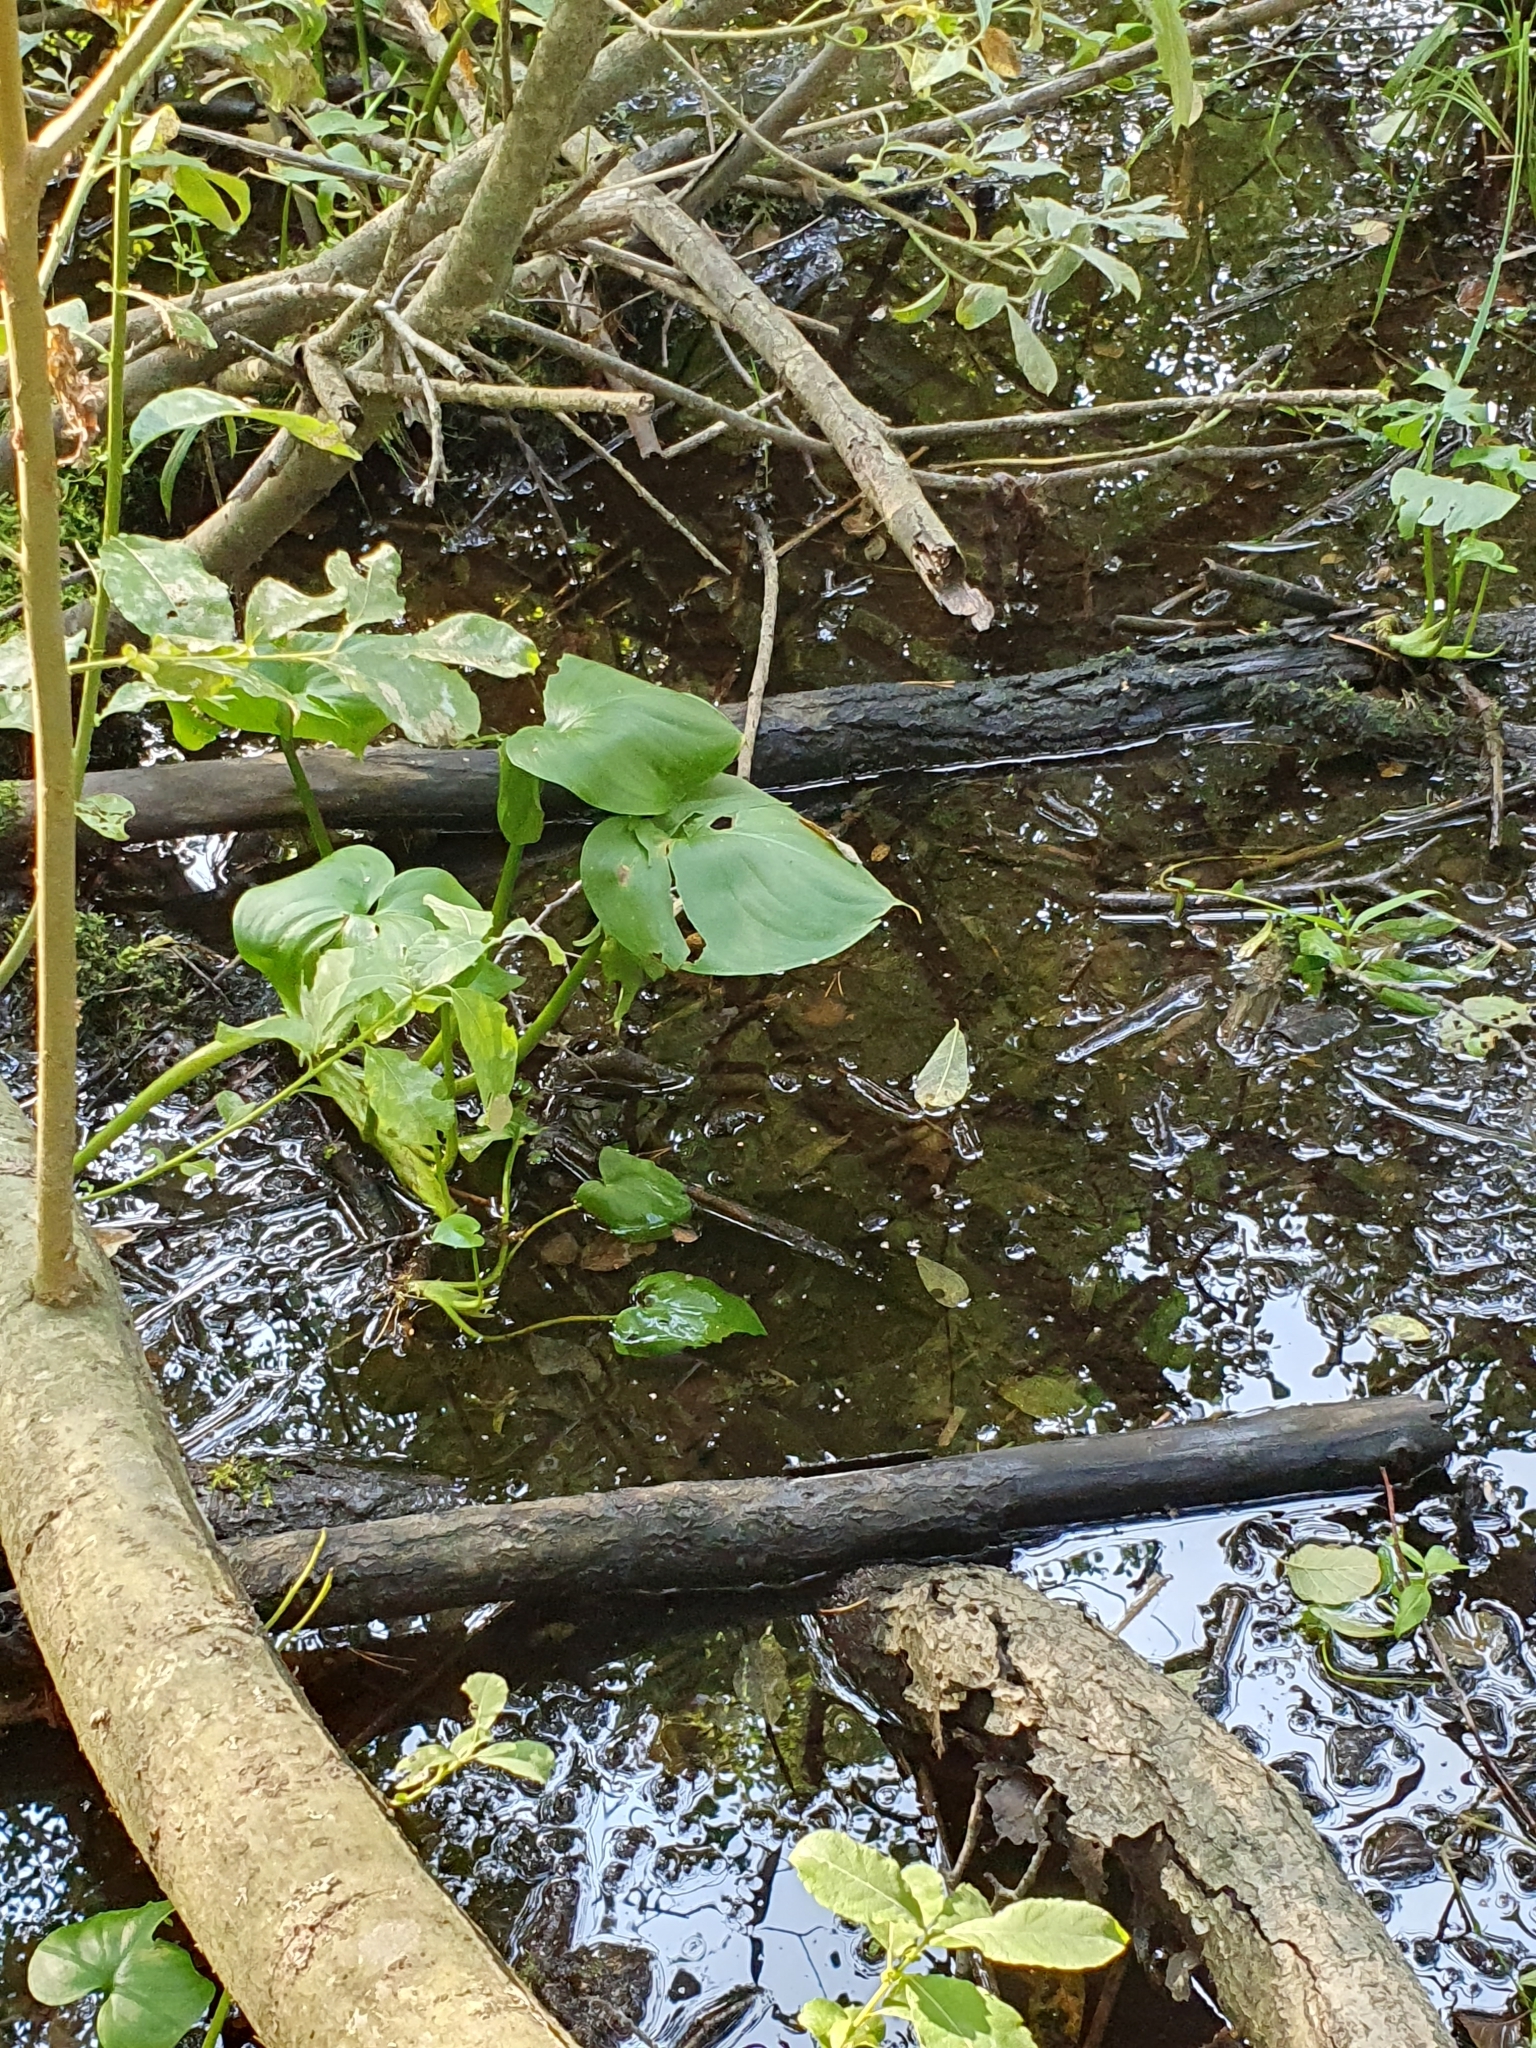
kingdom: Plantae
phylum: Tracheophyta
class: Liliopsida
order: Alismatales
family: Araceae
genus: Calla
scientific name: Calla palustris
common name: Bog arum
